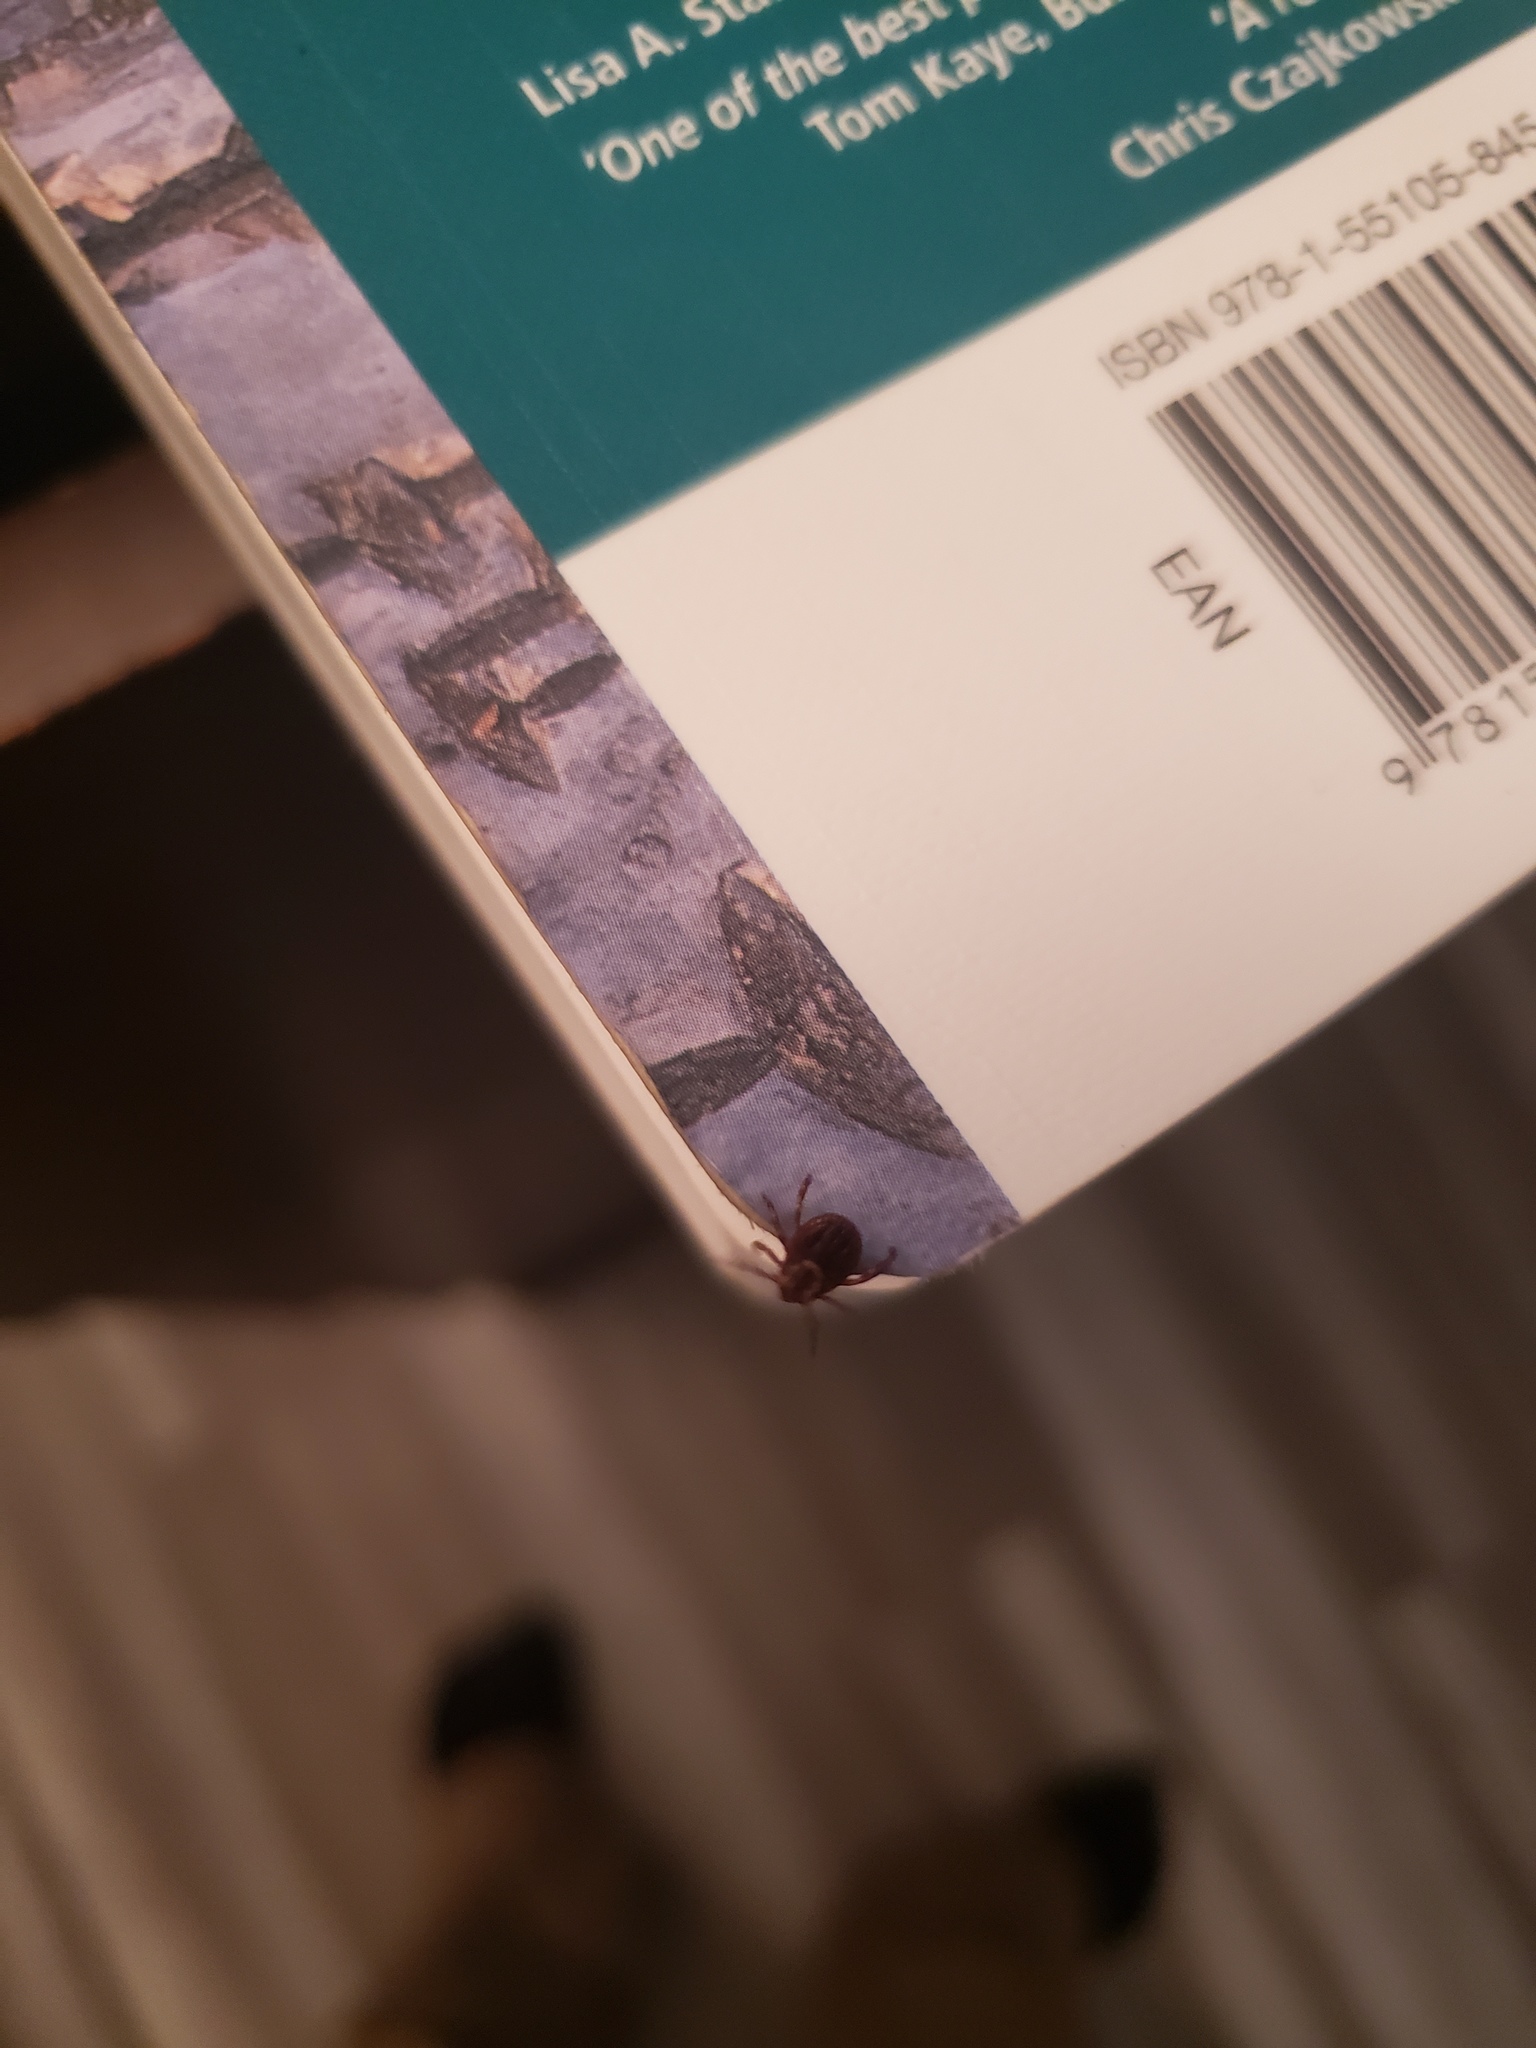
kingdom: Animalia
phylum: Arthropoda
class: Arachnida
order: Ixodida
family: Ixodidae
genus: Dermacentor
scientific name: Dermacentor variabilis
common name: American dog tick
